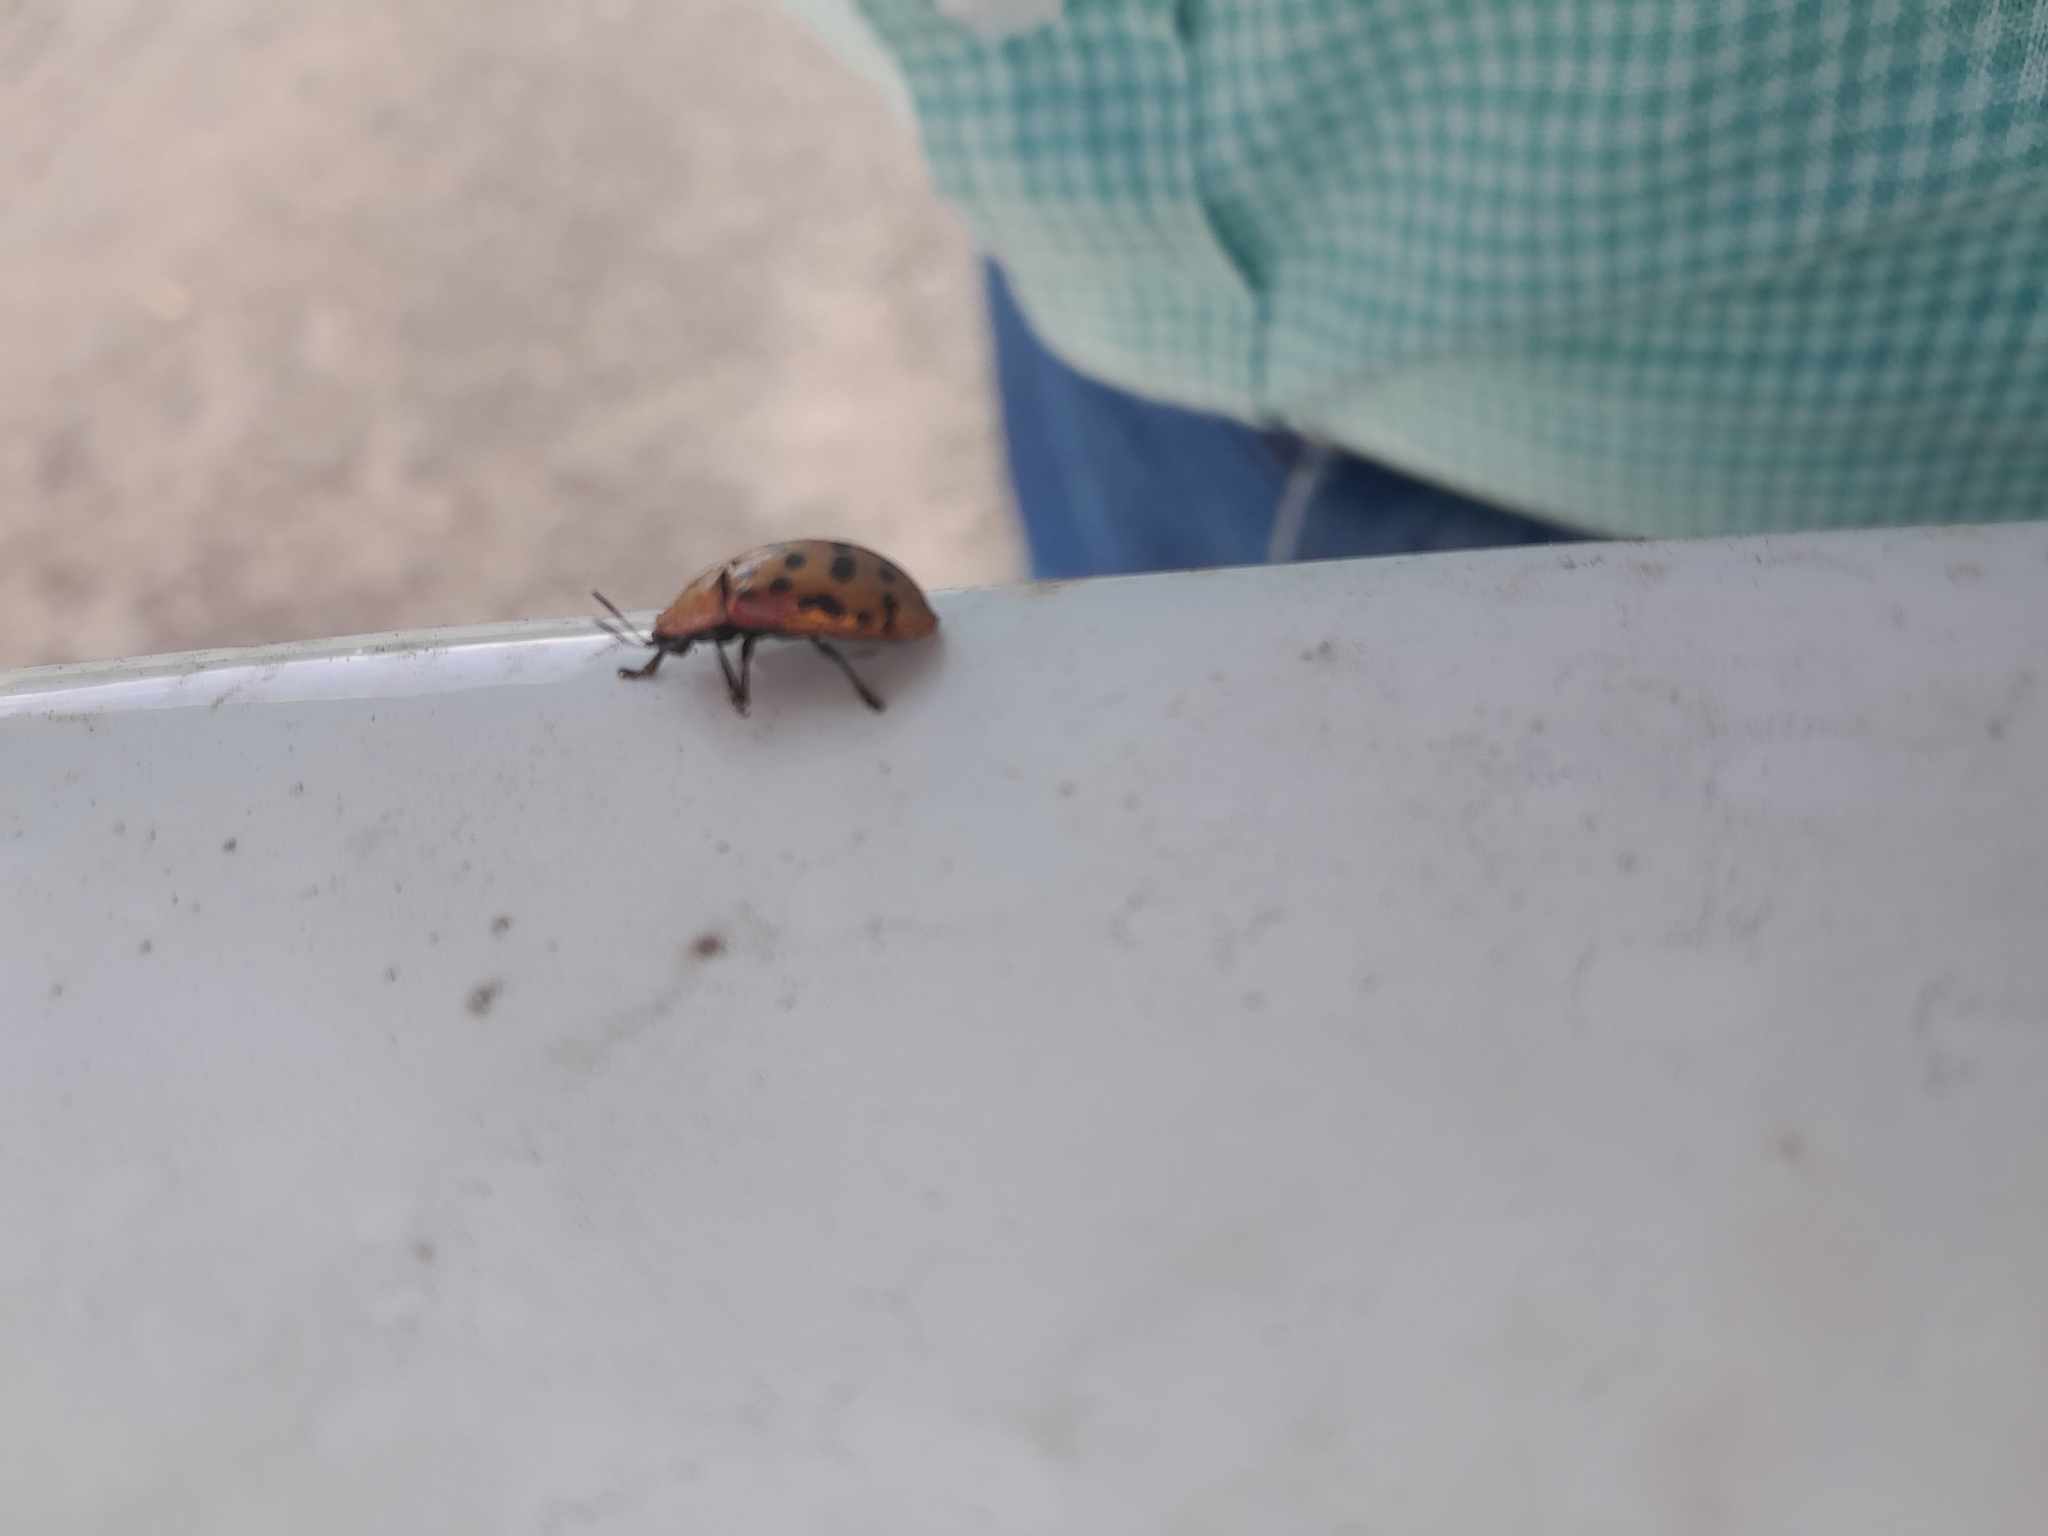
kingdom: Animalia
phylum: Arthropoda
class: Insecta
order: Coleoptera
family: Chrysomelidae
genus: Conchyloctenia
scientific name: Conchyloctenia punctata
